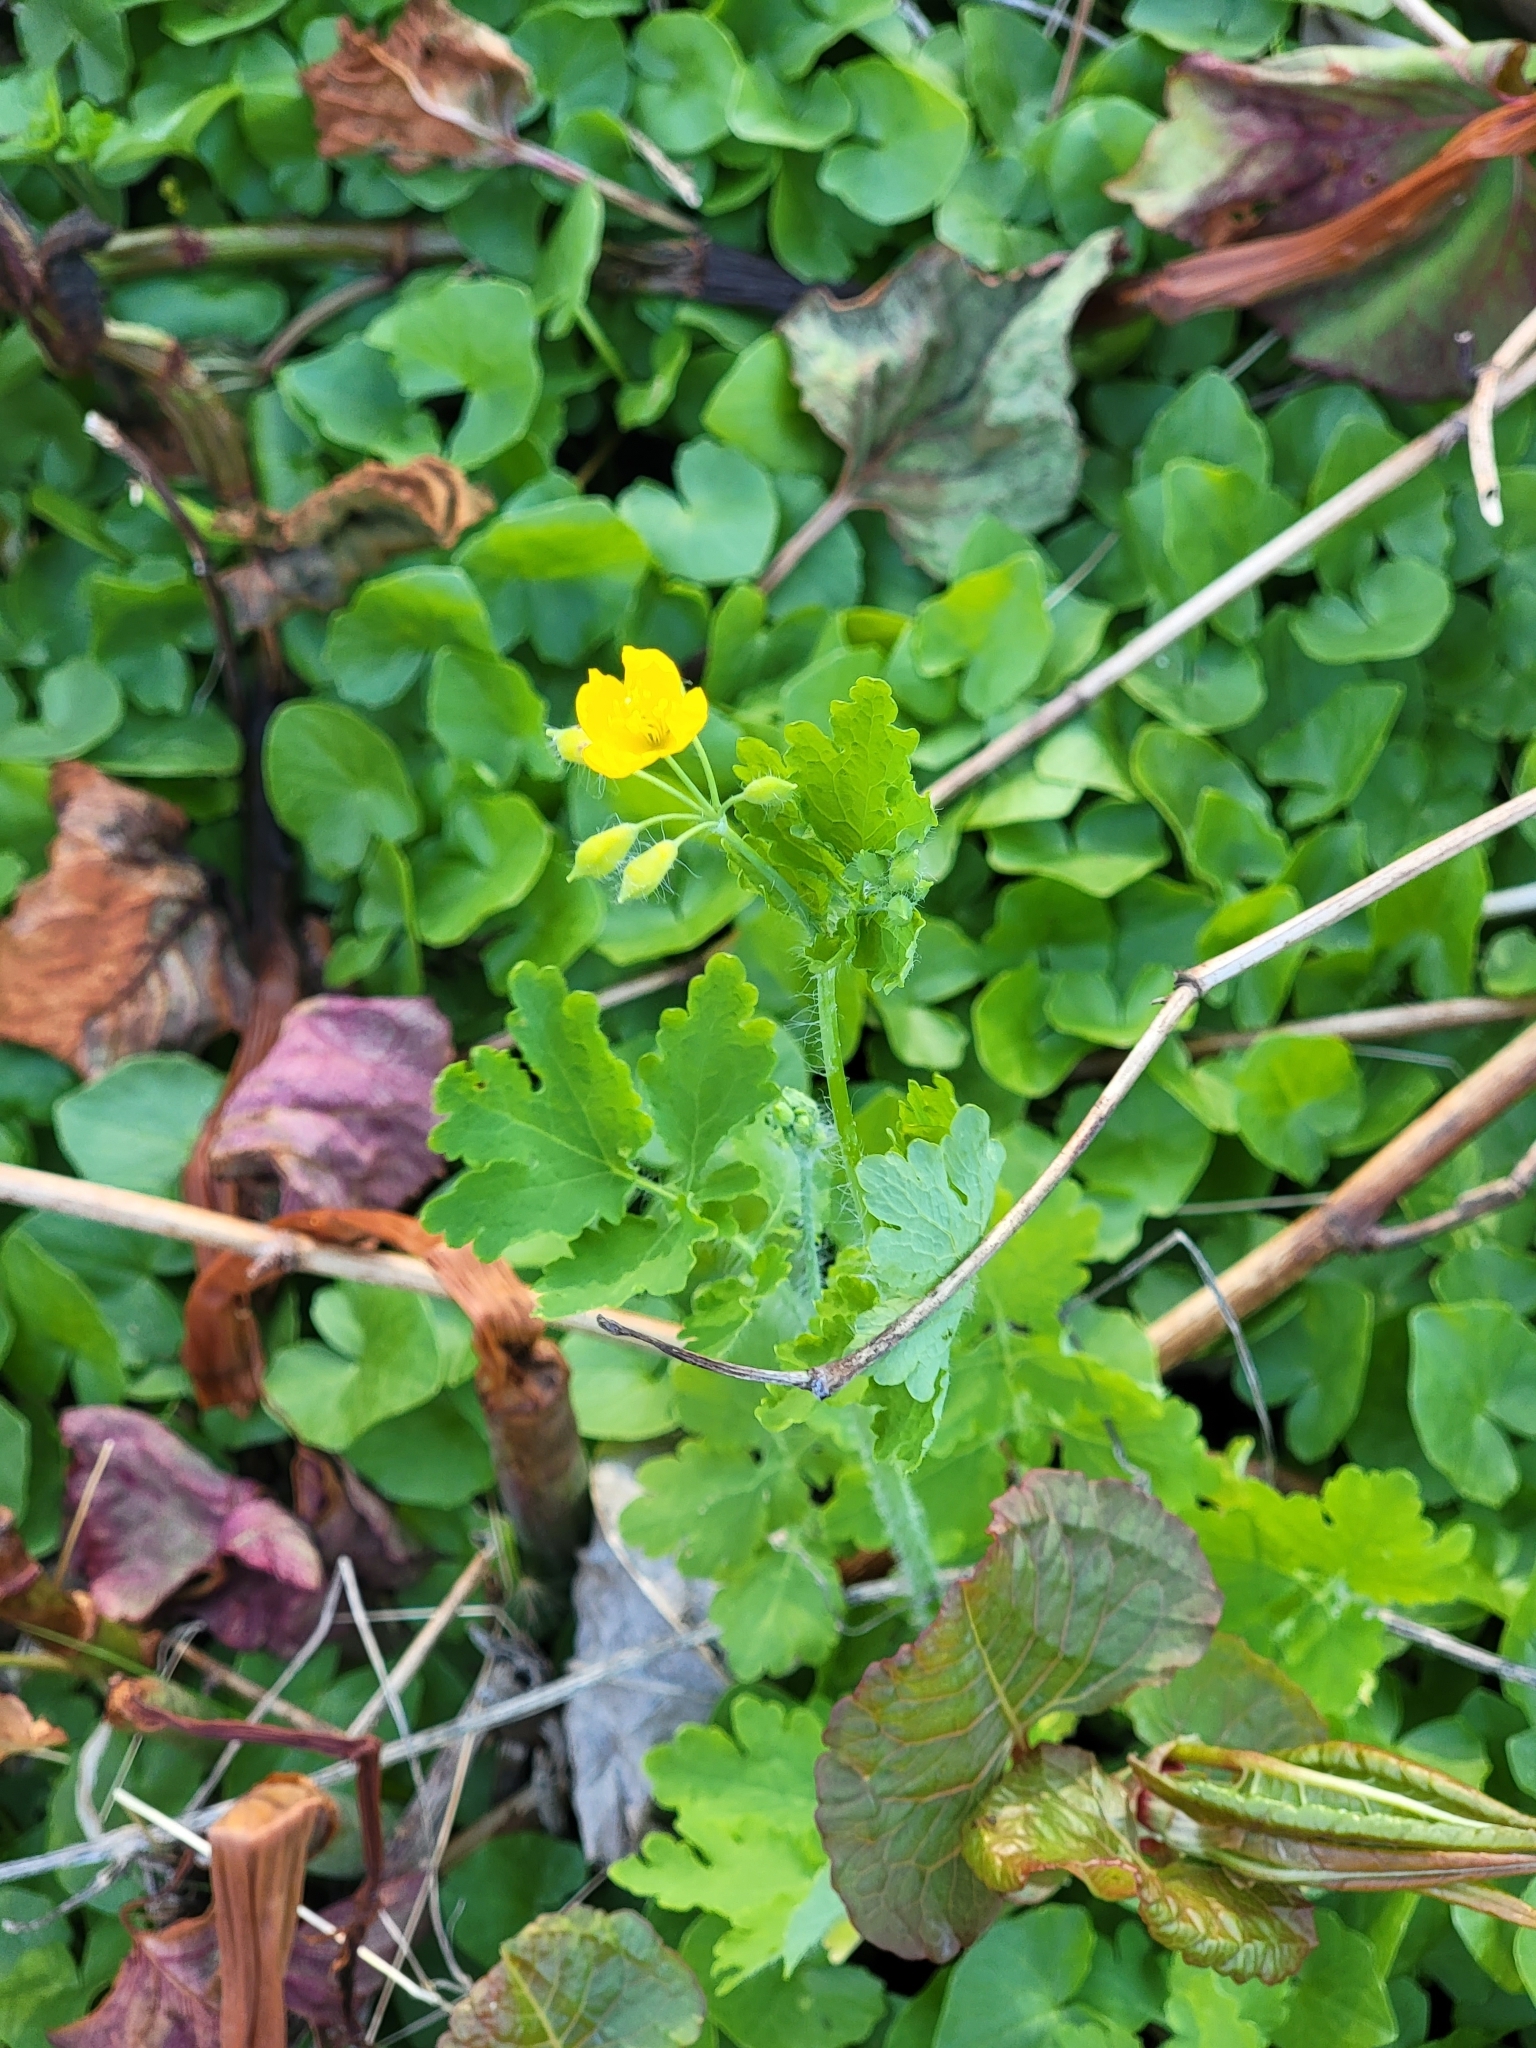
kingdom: Plantae
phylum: Tracheophyta
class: Magnoliopsida
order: Ranunculales
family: Papaveraceae
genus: Chelidonium
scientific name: Chelidonium majus
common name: Greater celandine
